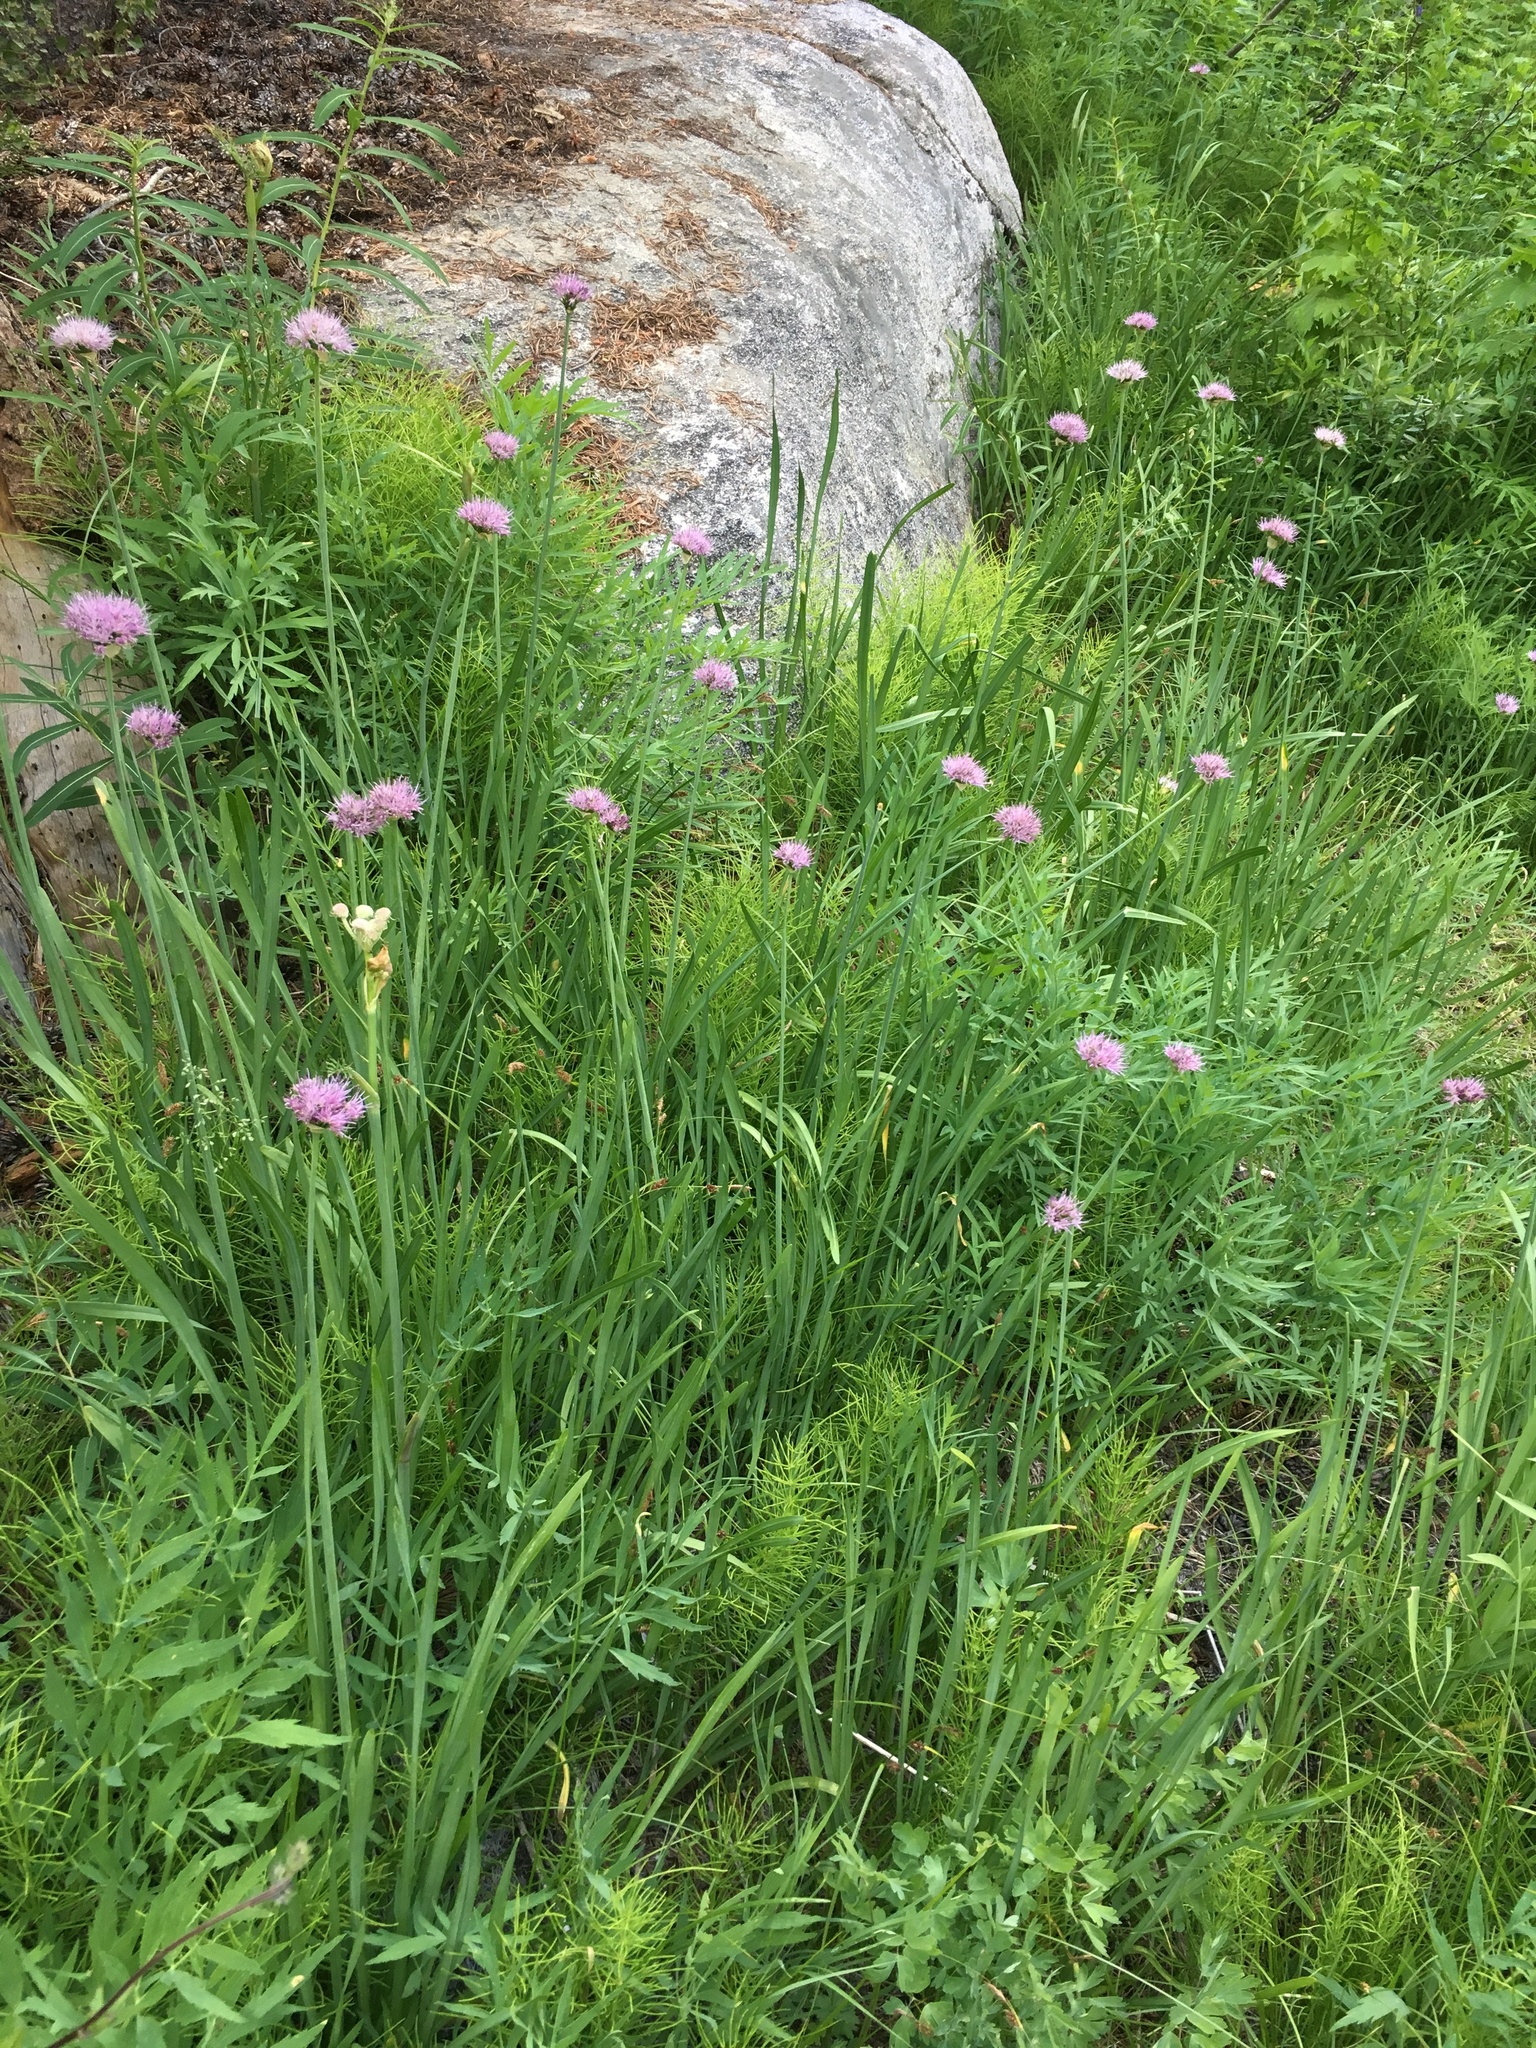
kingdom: Plantae
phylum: Tracheophyta
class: Liliopsida
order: Asparagales
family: Amaryllidaceae
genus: Allium
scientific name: Allium validum
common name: Pacific mountain onion
